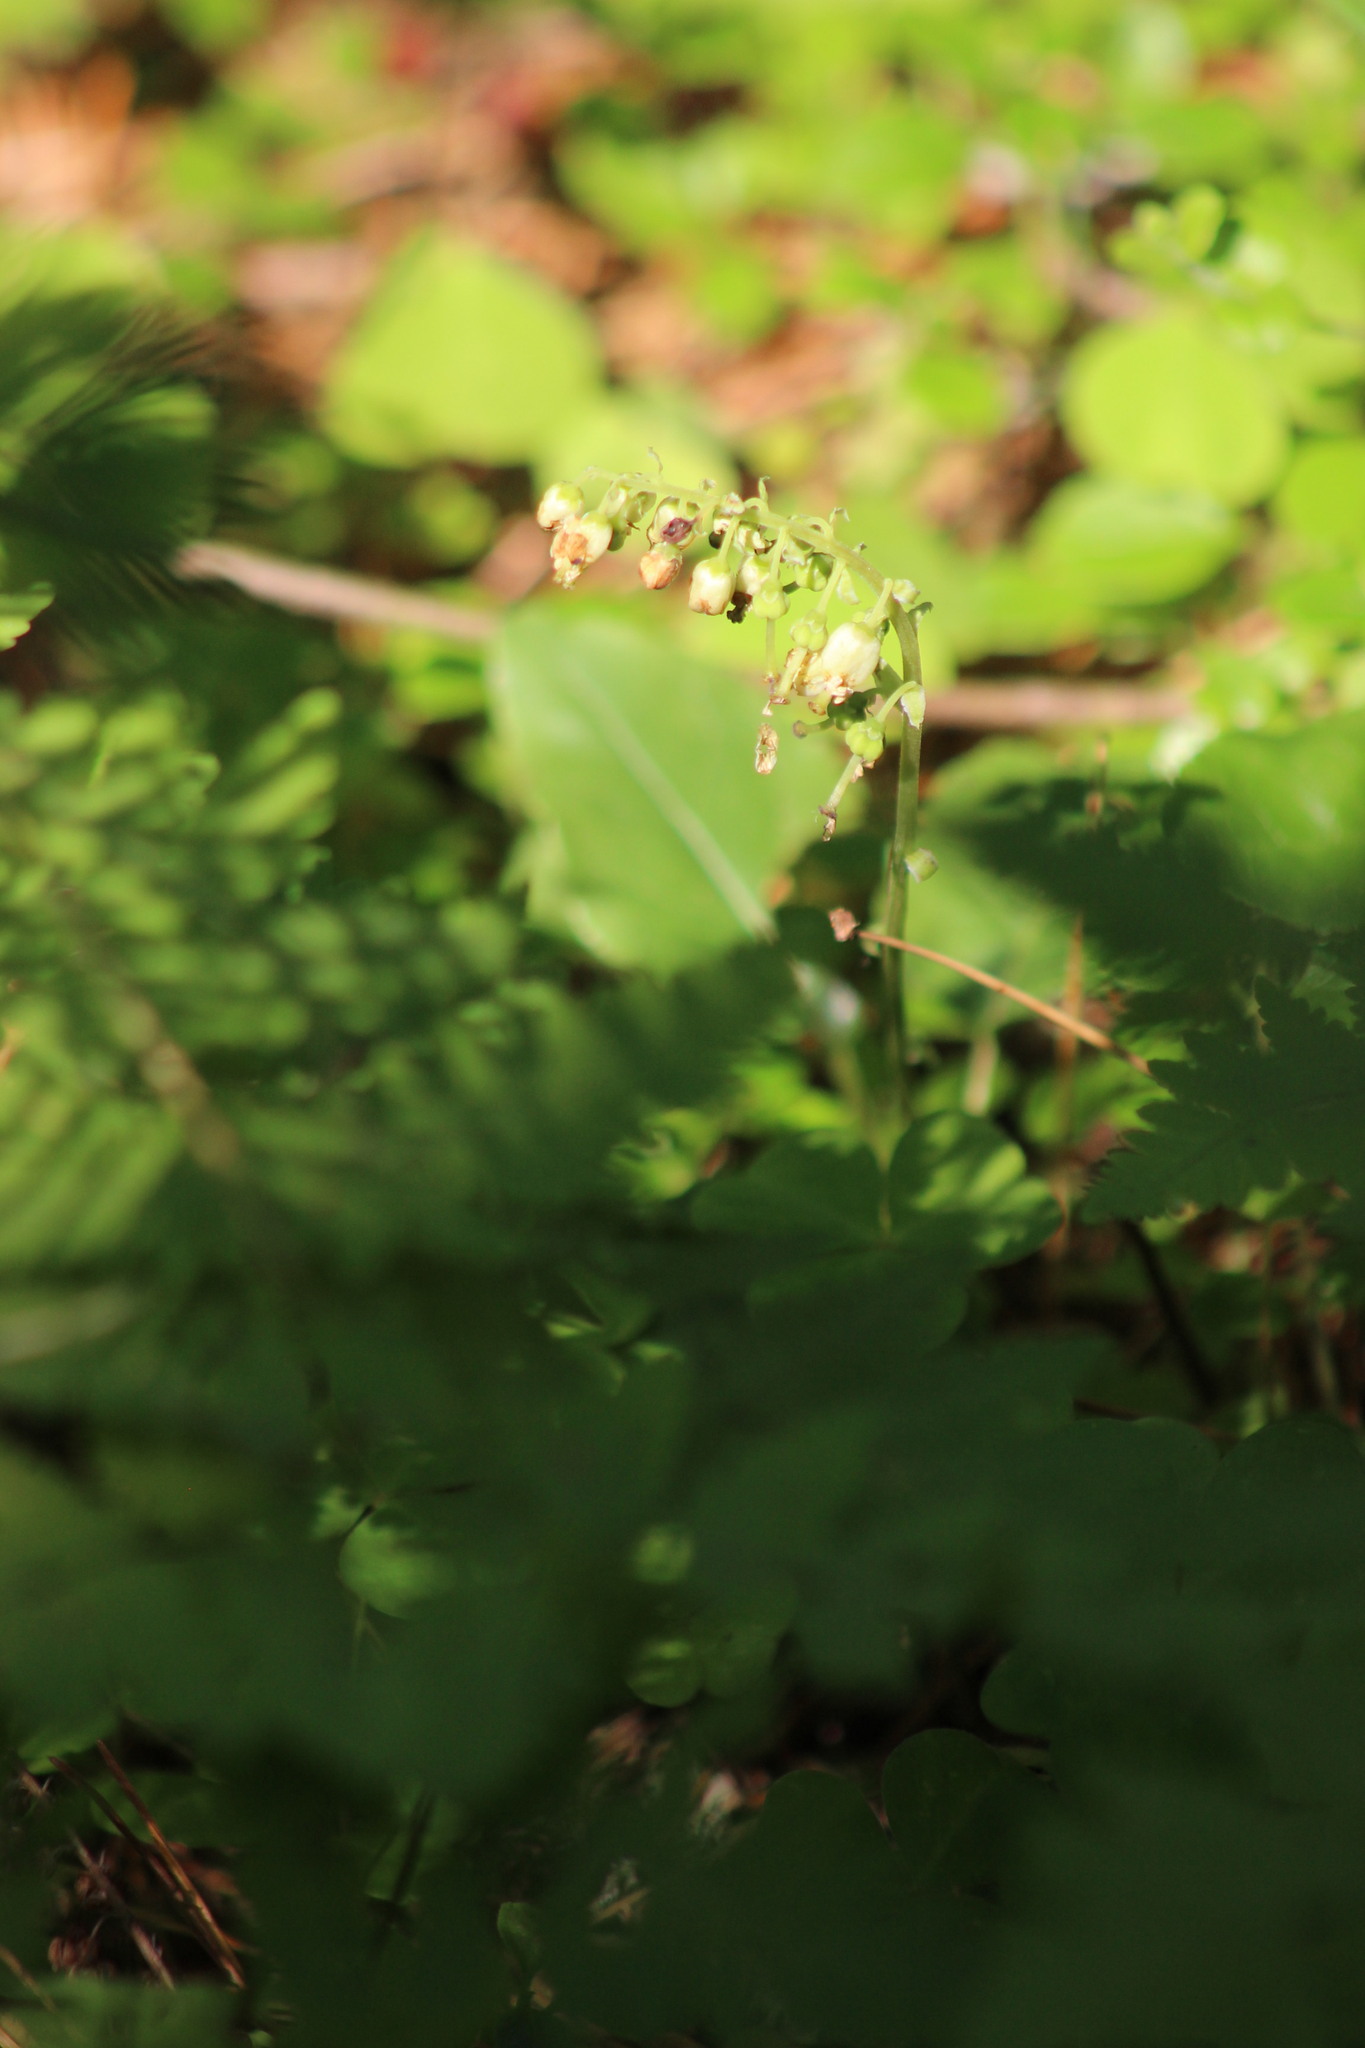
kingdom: Plantae
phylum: Tracheophyta
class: Magnoliopsida
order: Ericales
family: Ericaceae
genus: Orthilia
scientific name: Orthilia secunda
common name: One-sided orthilia
